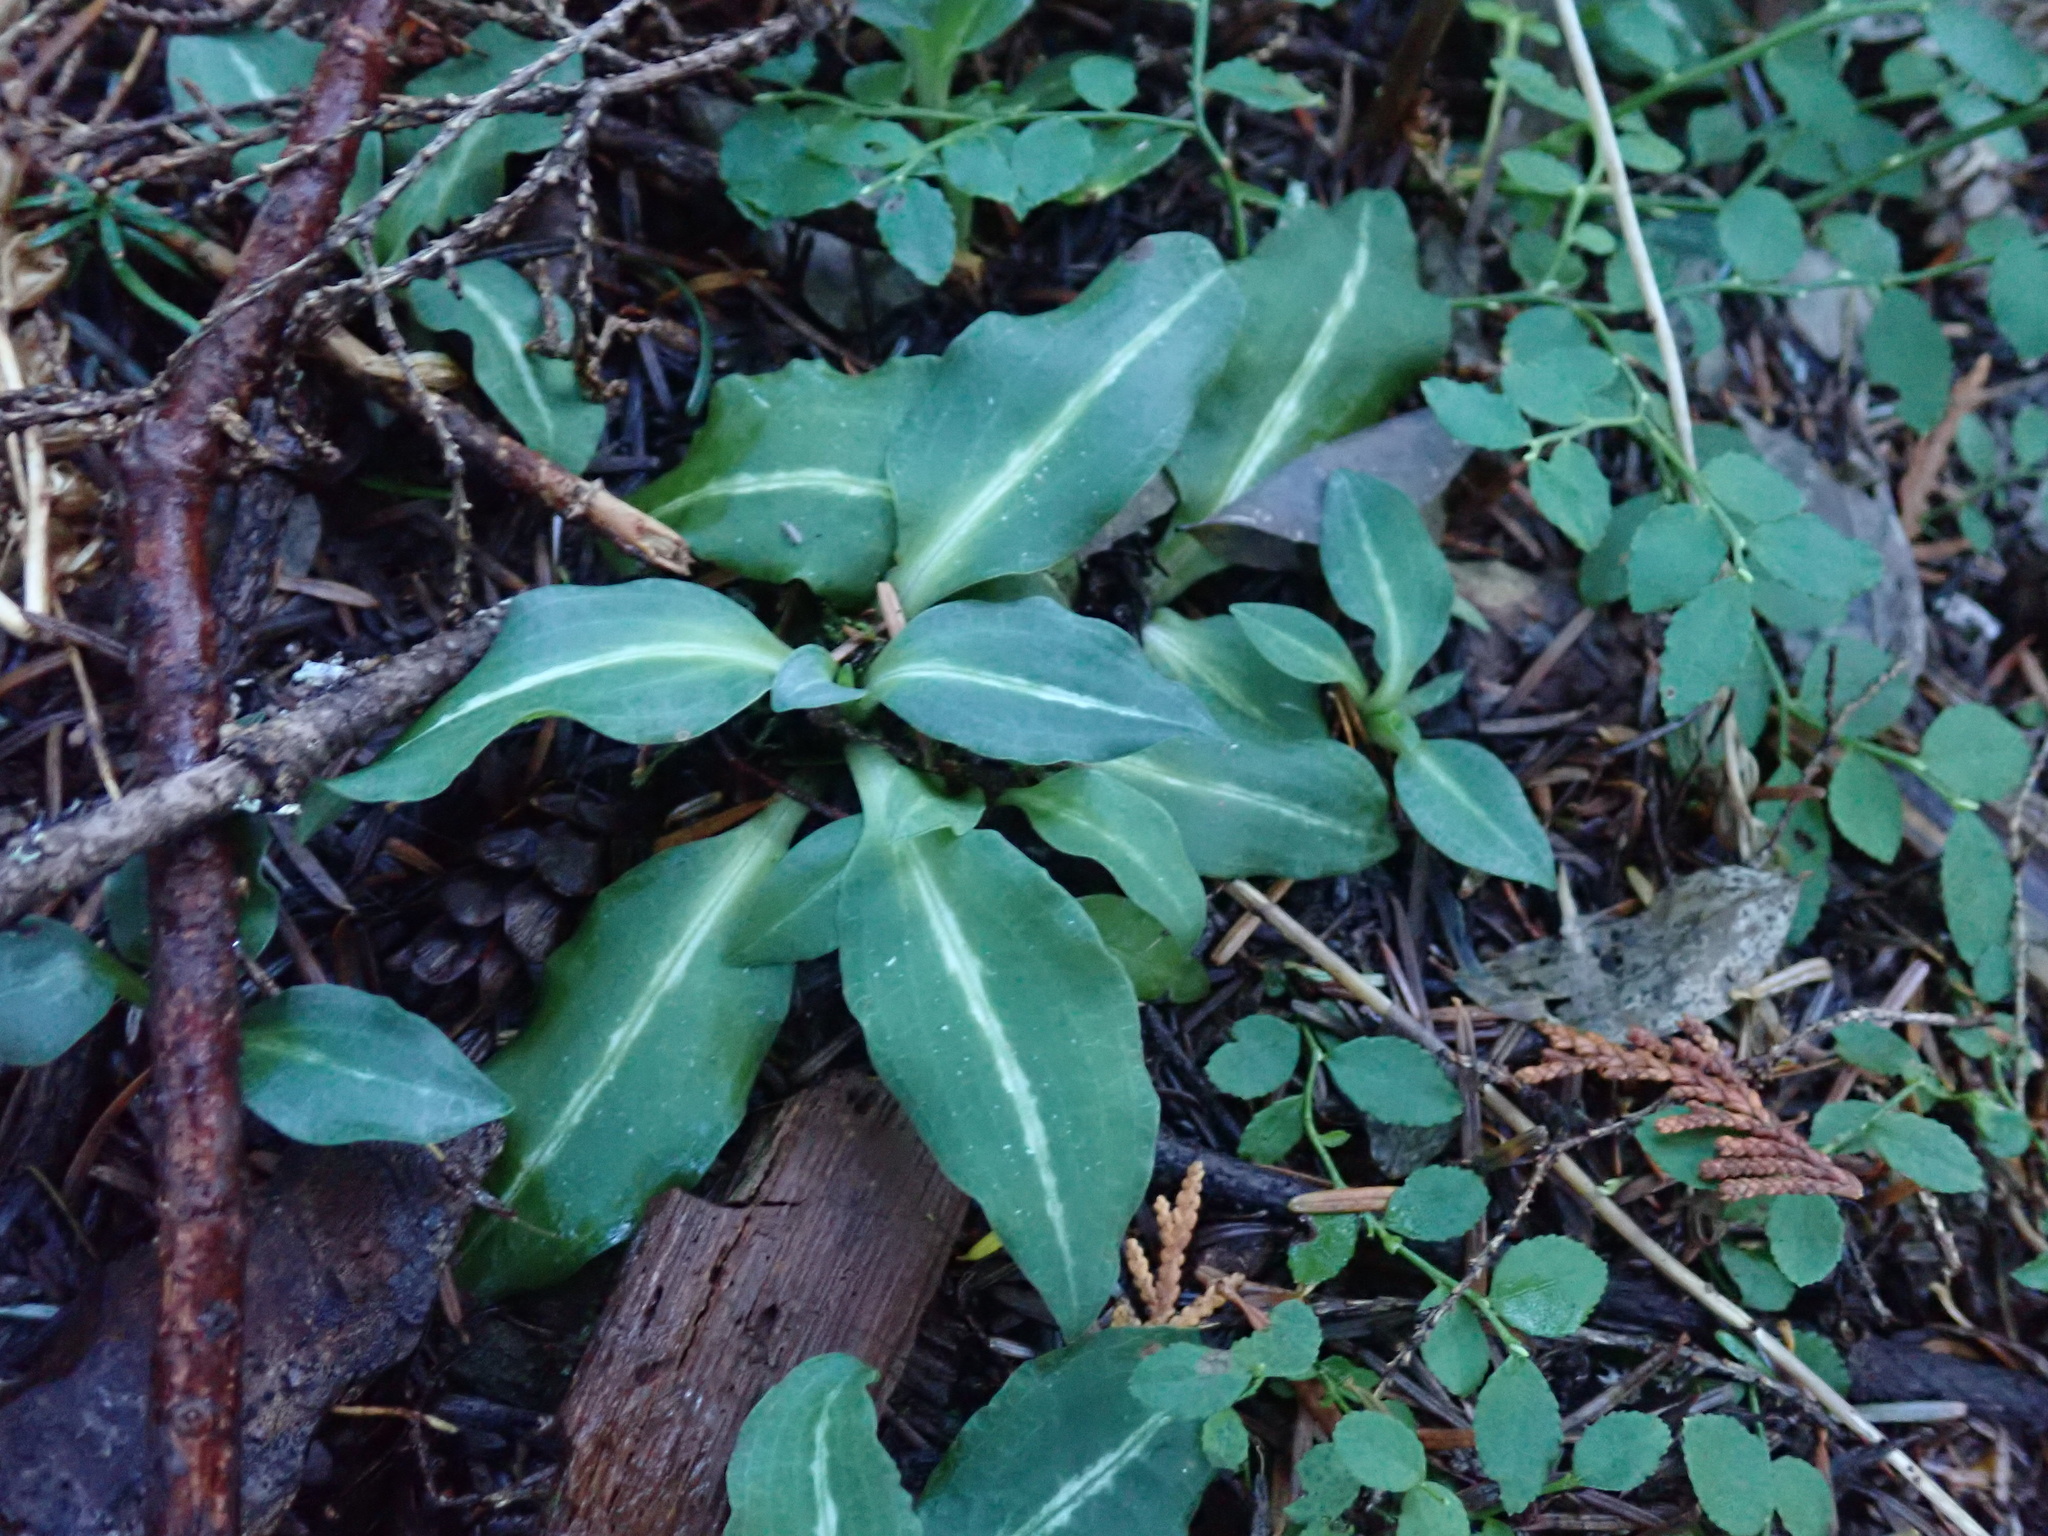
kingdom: Plantae
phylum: Tracheophyta
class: Liliopsida
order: Asparagales
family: Orchidaceae
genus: Goodyera
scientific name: Goodyera oblongifolia
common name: Giant rattlesnake-plantain
